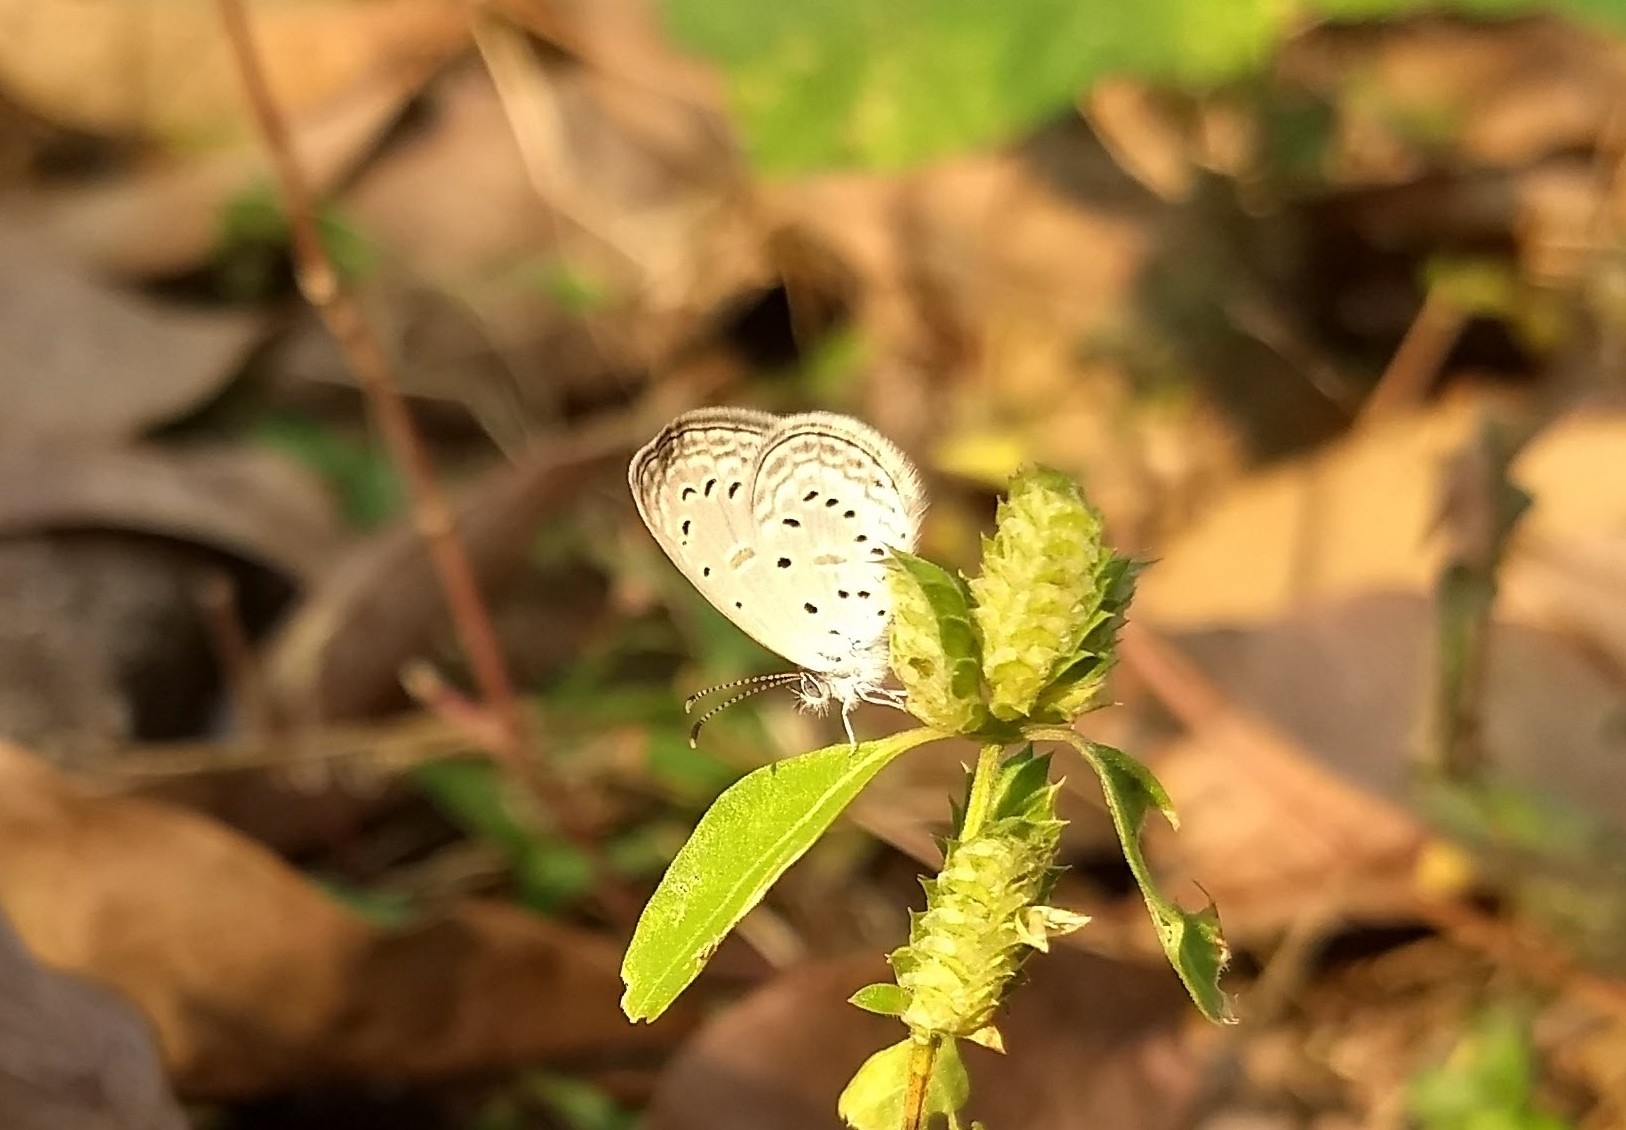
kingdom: Animalia
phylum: Arthropoda
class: Insecta
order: Lepidoptera
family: Lycaenidae
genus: Zizula
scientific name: Zizula hylax
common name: Gaika blue
